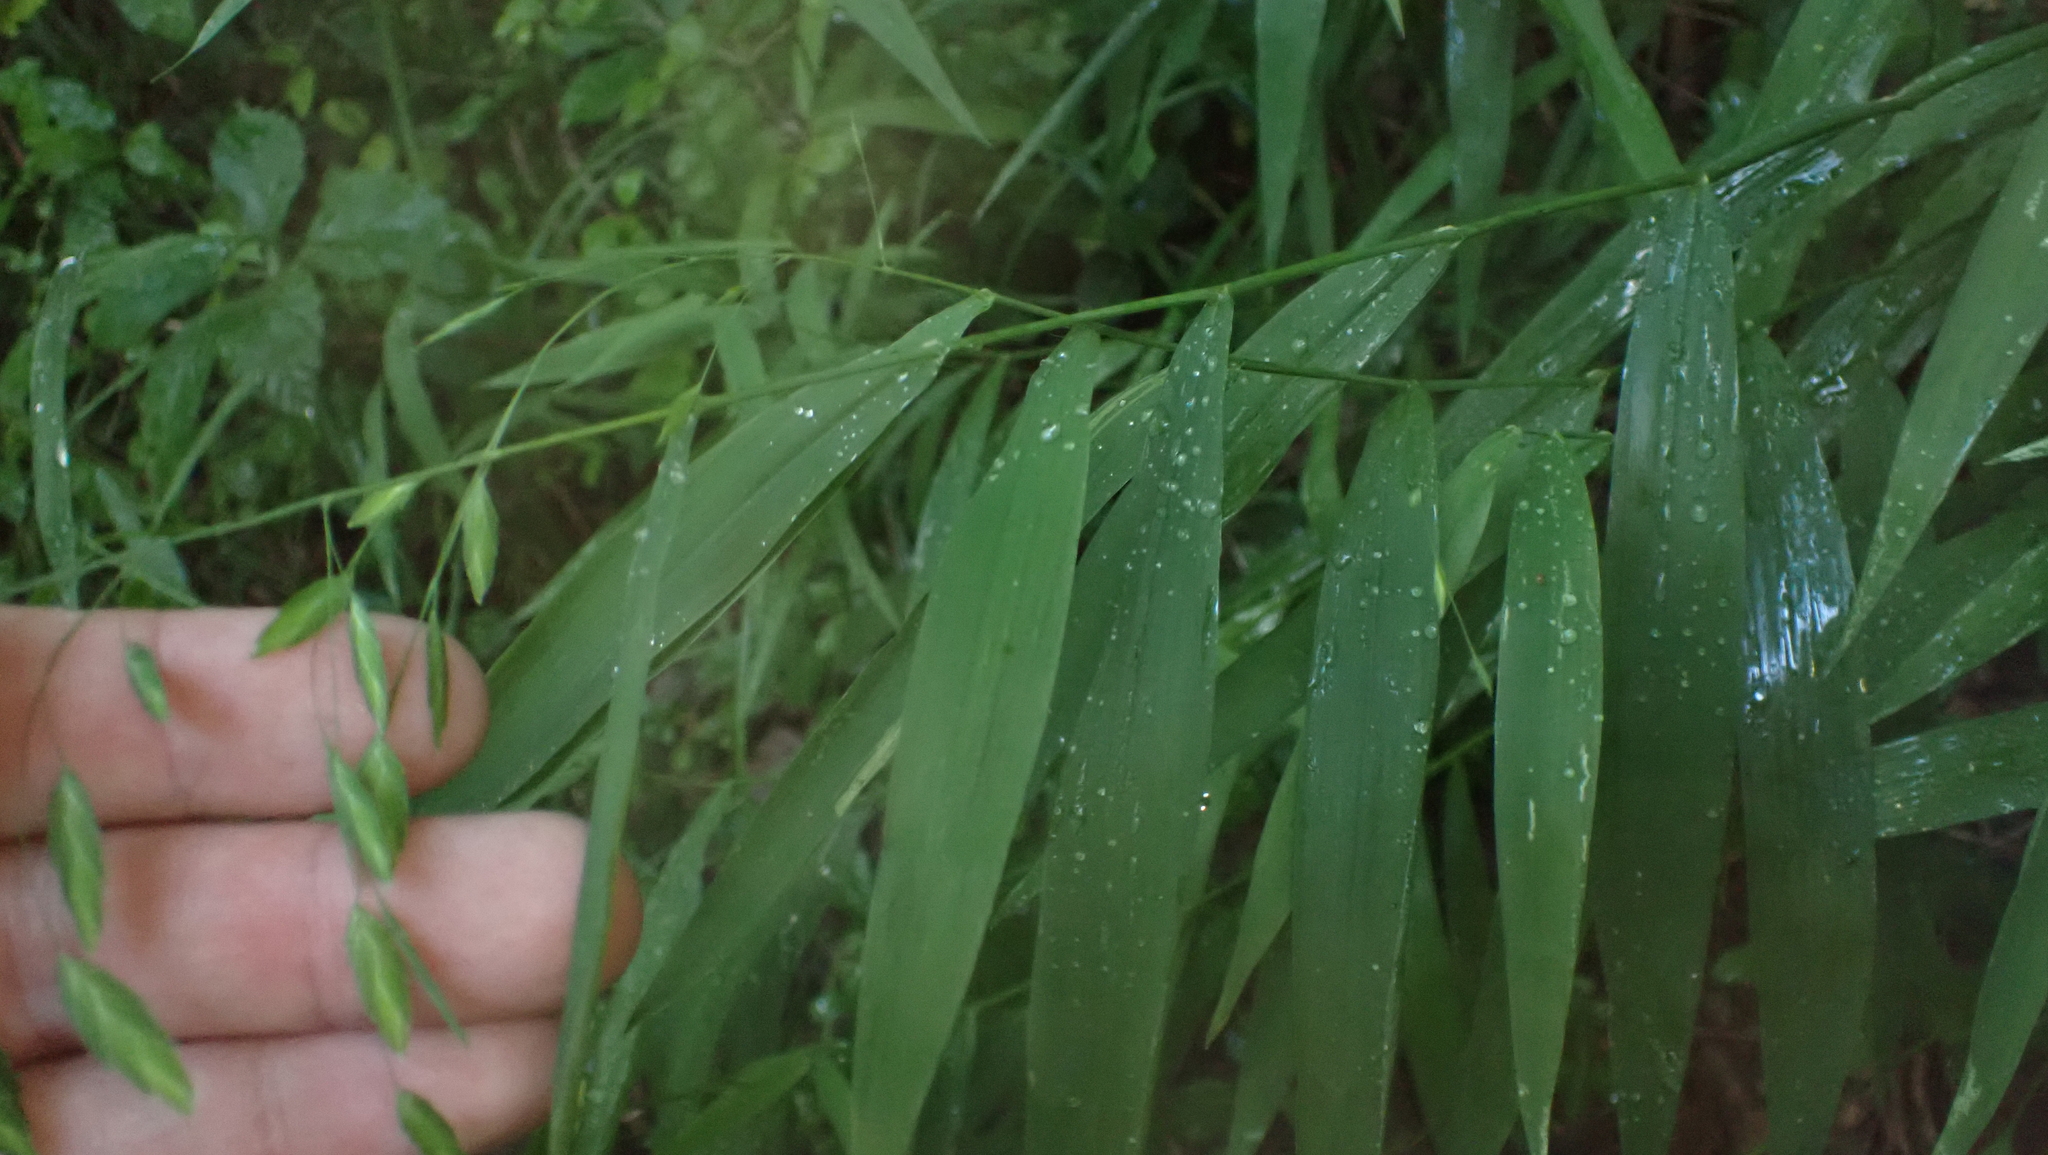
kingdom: Plantae
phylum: Tracheophyta
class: Liliopsida
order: Poales
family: Poaceae
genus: Chasmanthium
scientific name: Chasmanthium latifolium
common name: Broad-leaved chasmanthium
